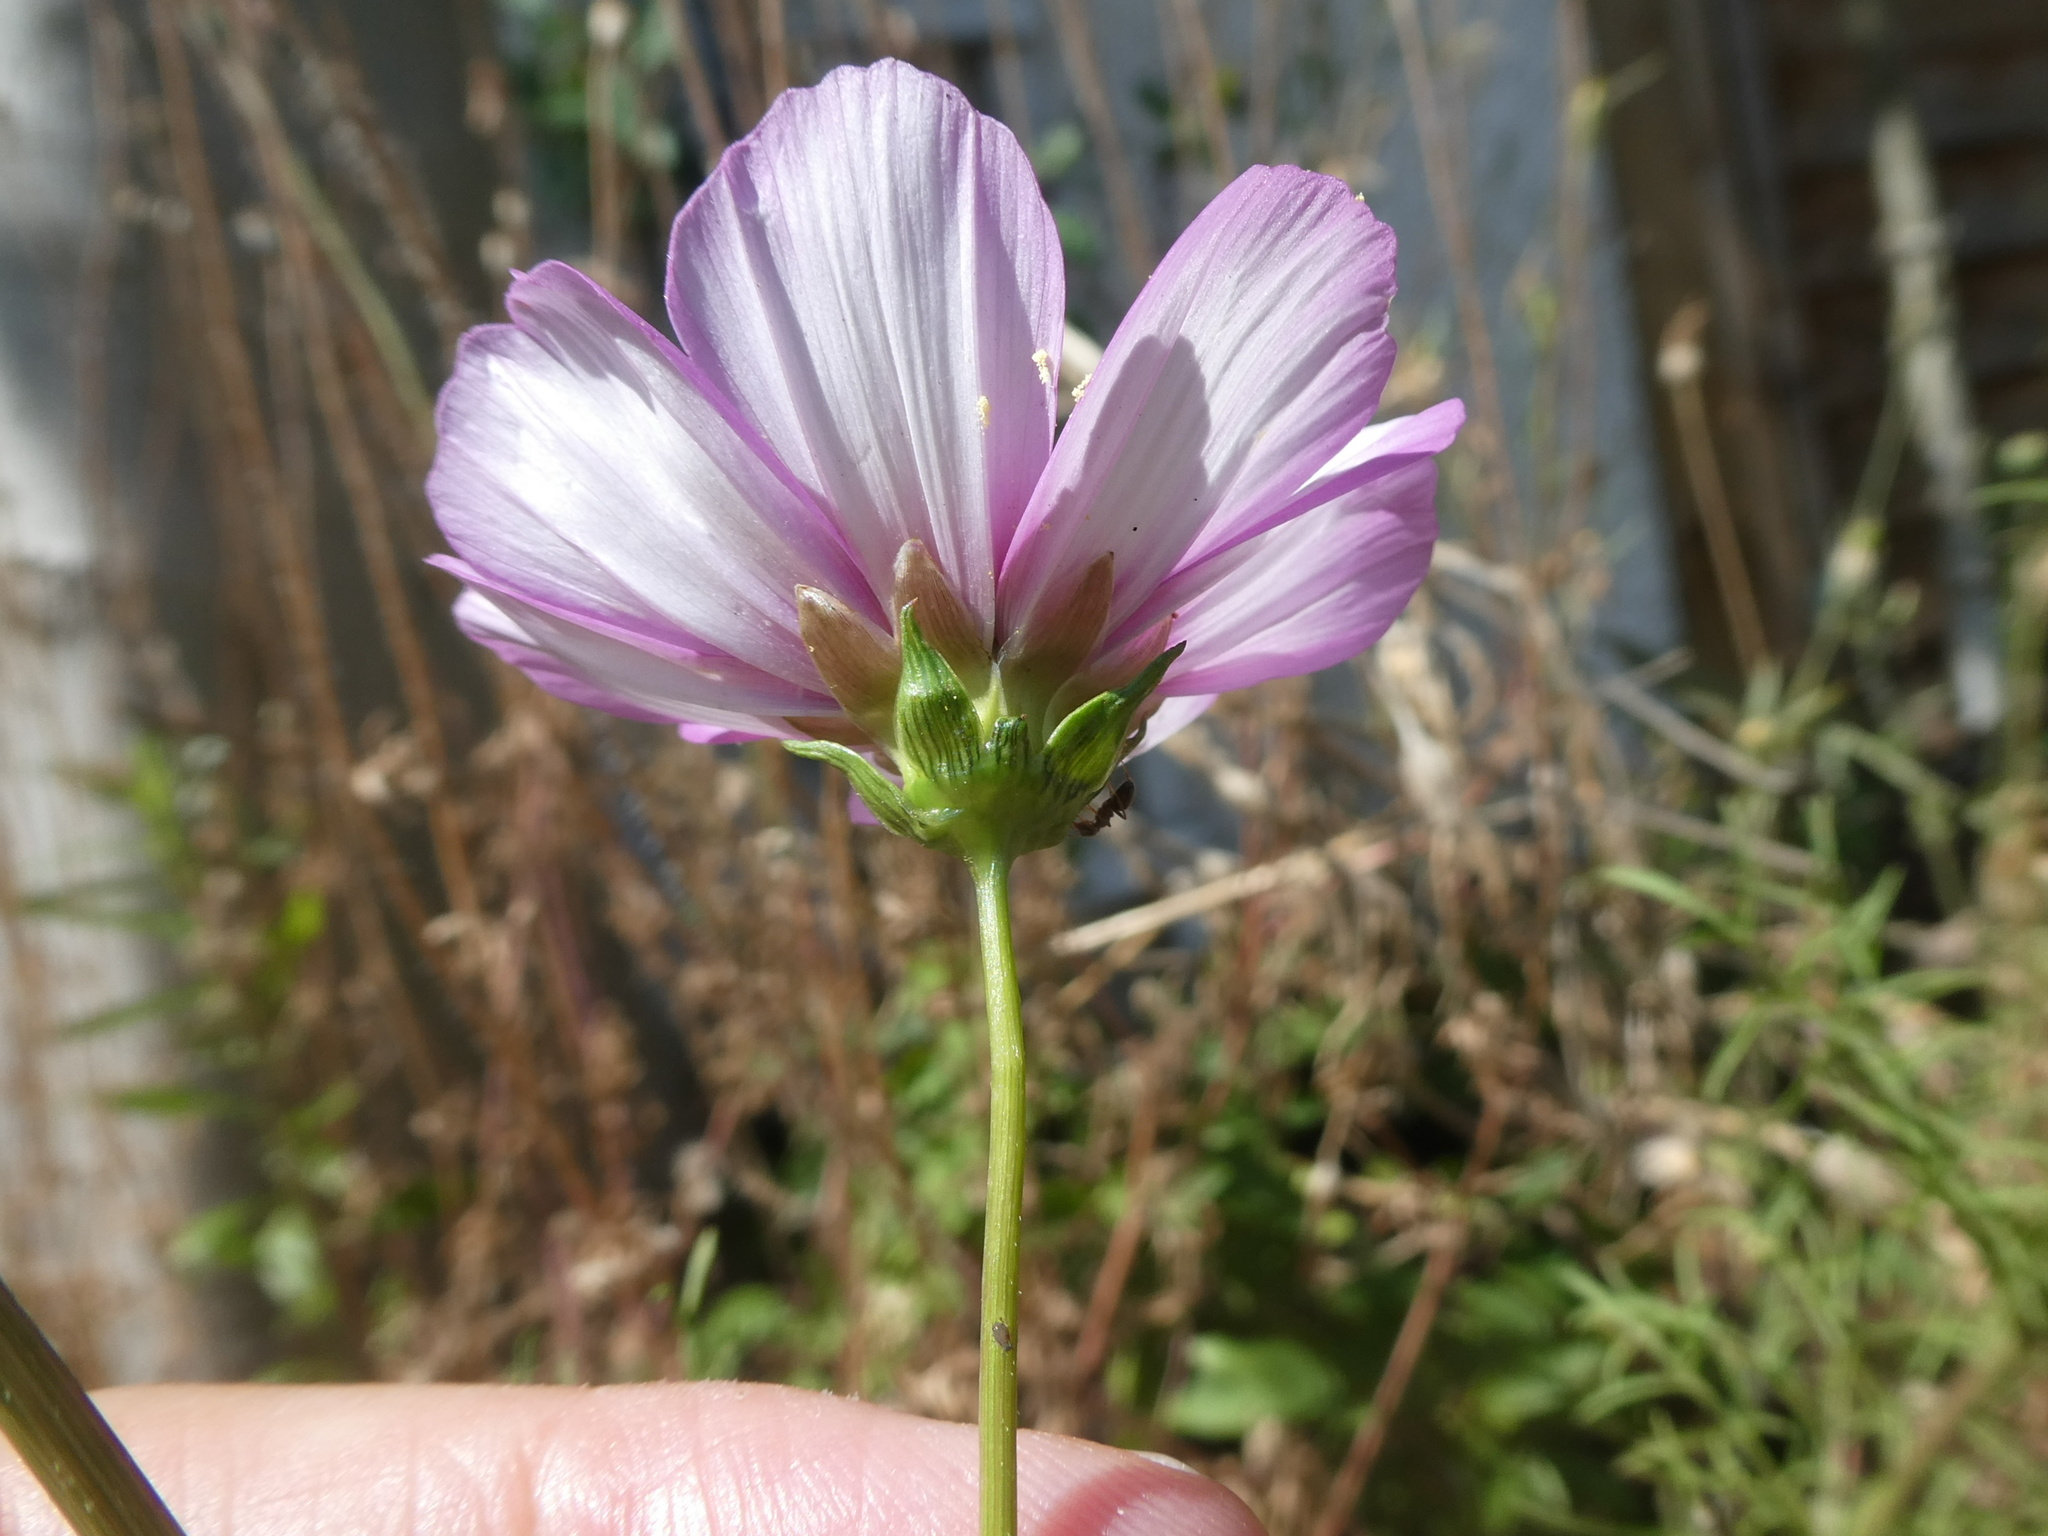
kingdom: Plantae
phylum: Tracheophyta
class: Magnoliopsida
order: Asterales
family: Asteraceae
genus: Cosmos
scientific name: Cosmos bipinnatus
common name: Garden cosmos
